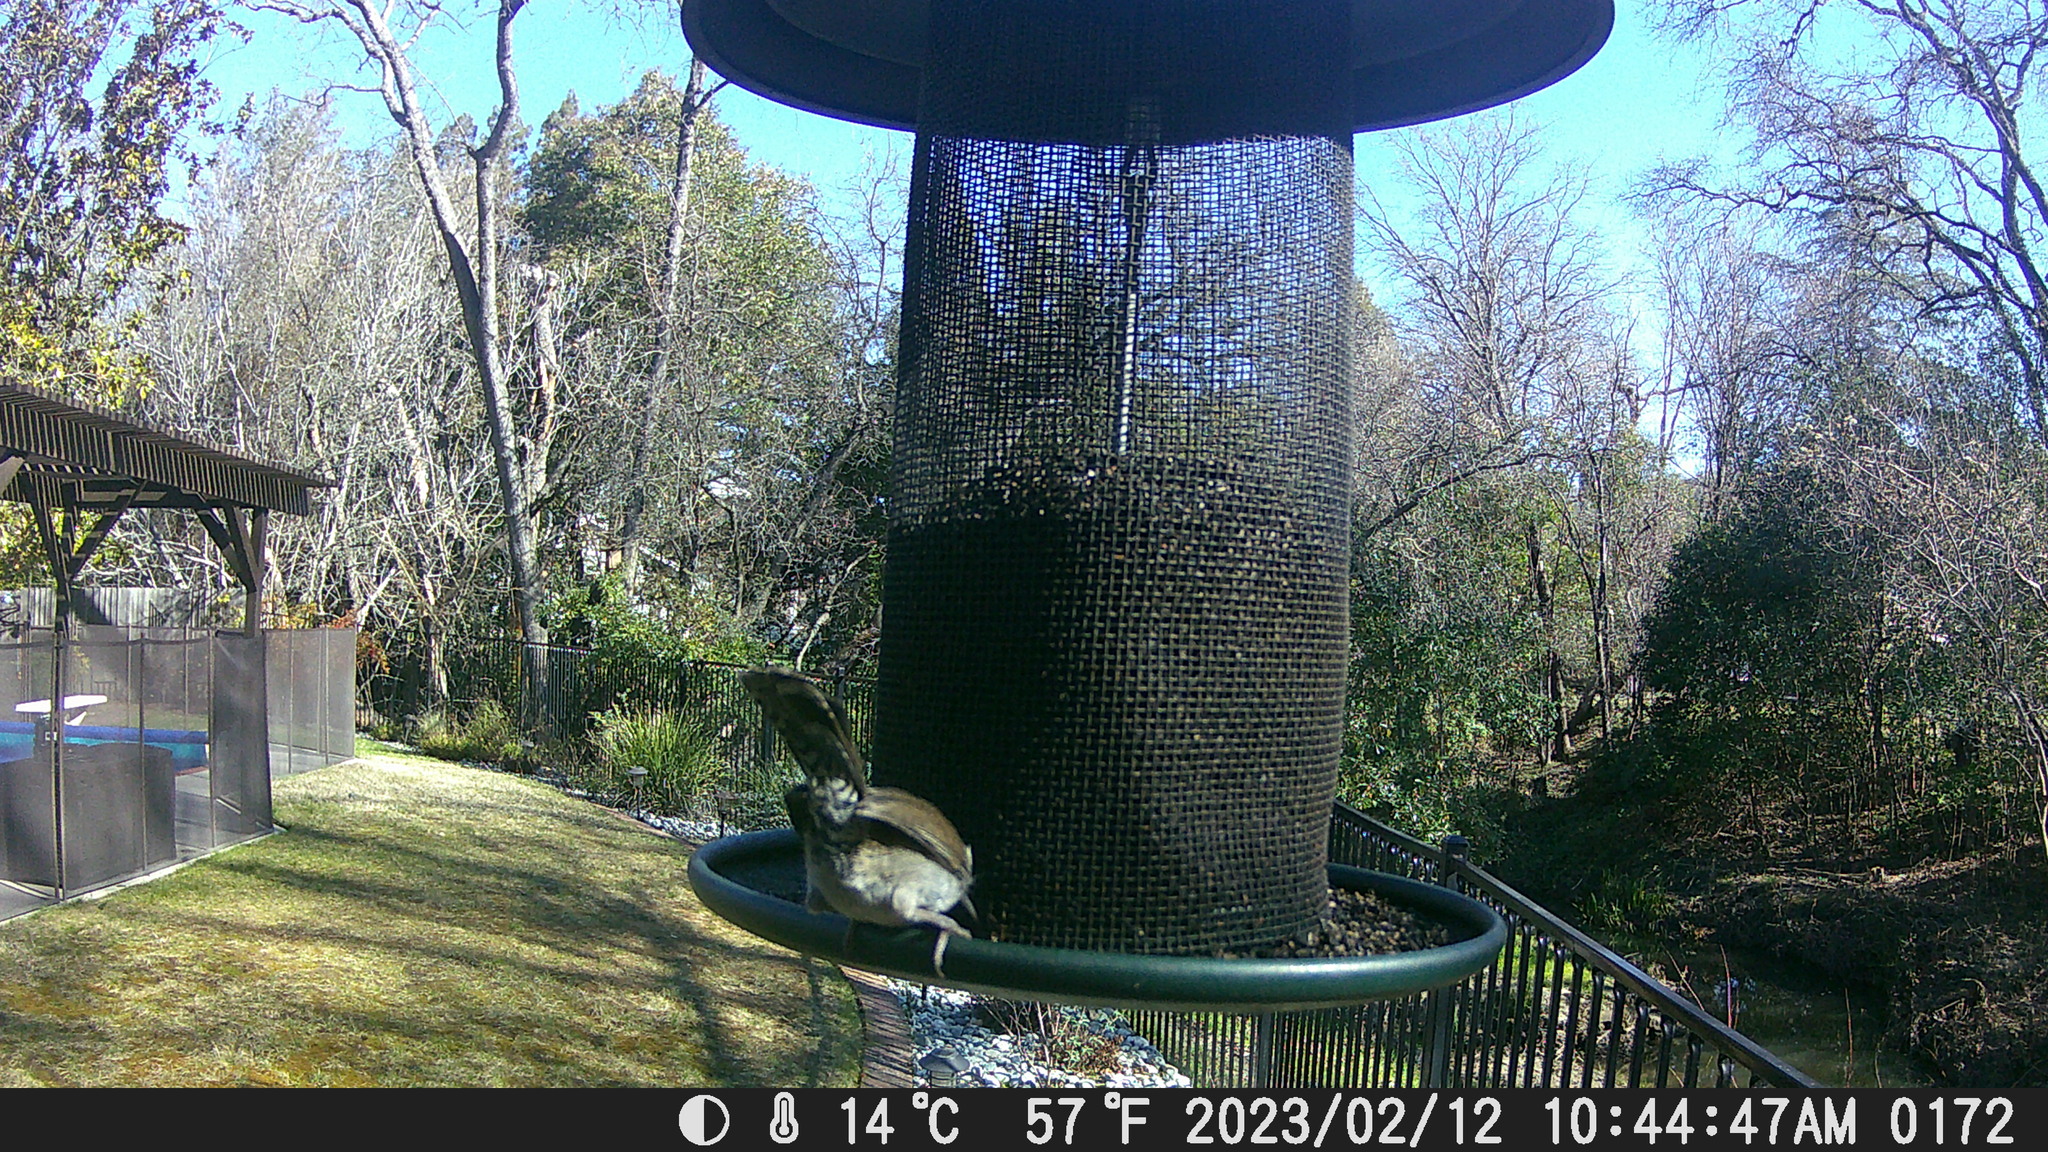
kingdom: Animalia
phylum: Chordata
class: Aves
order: Passeriformes
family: Troglodytidae
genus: Thryomanes
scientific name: Thryomanes bewickii
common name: Bewick's wren
